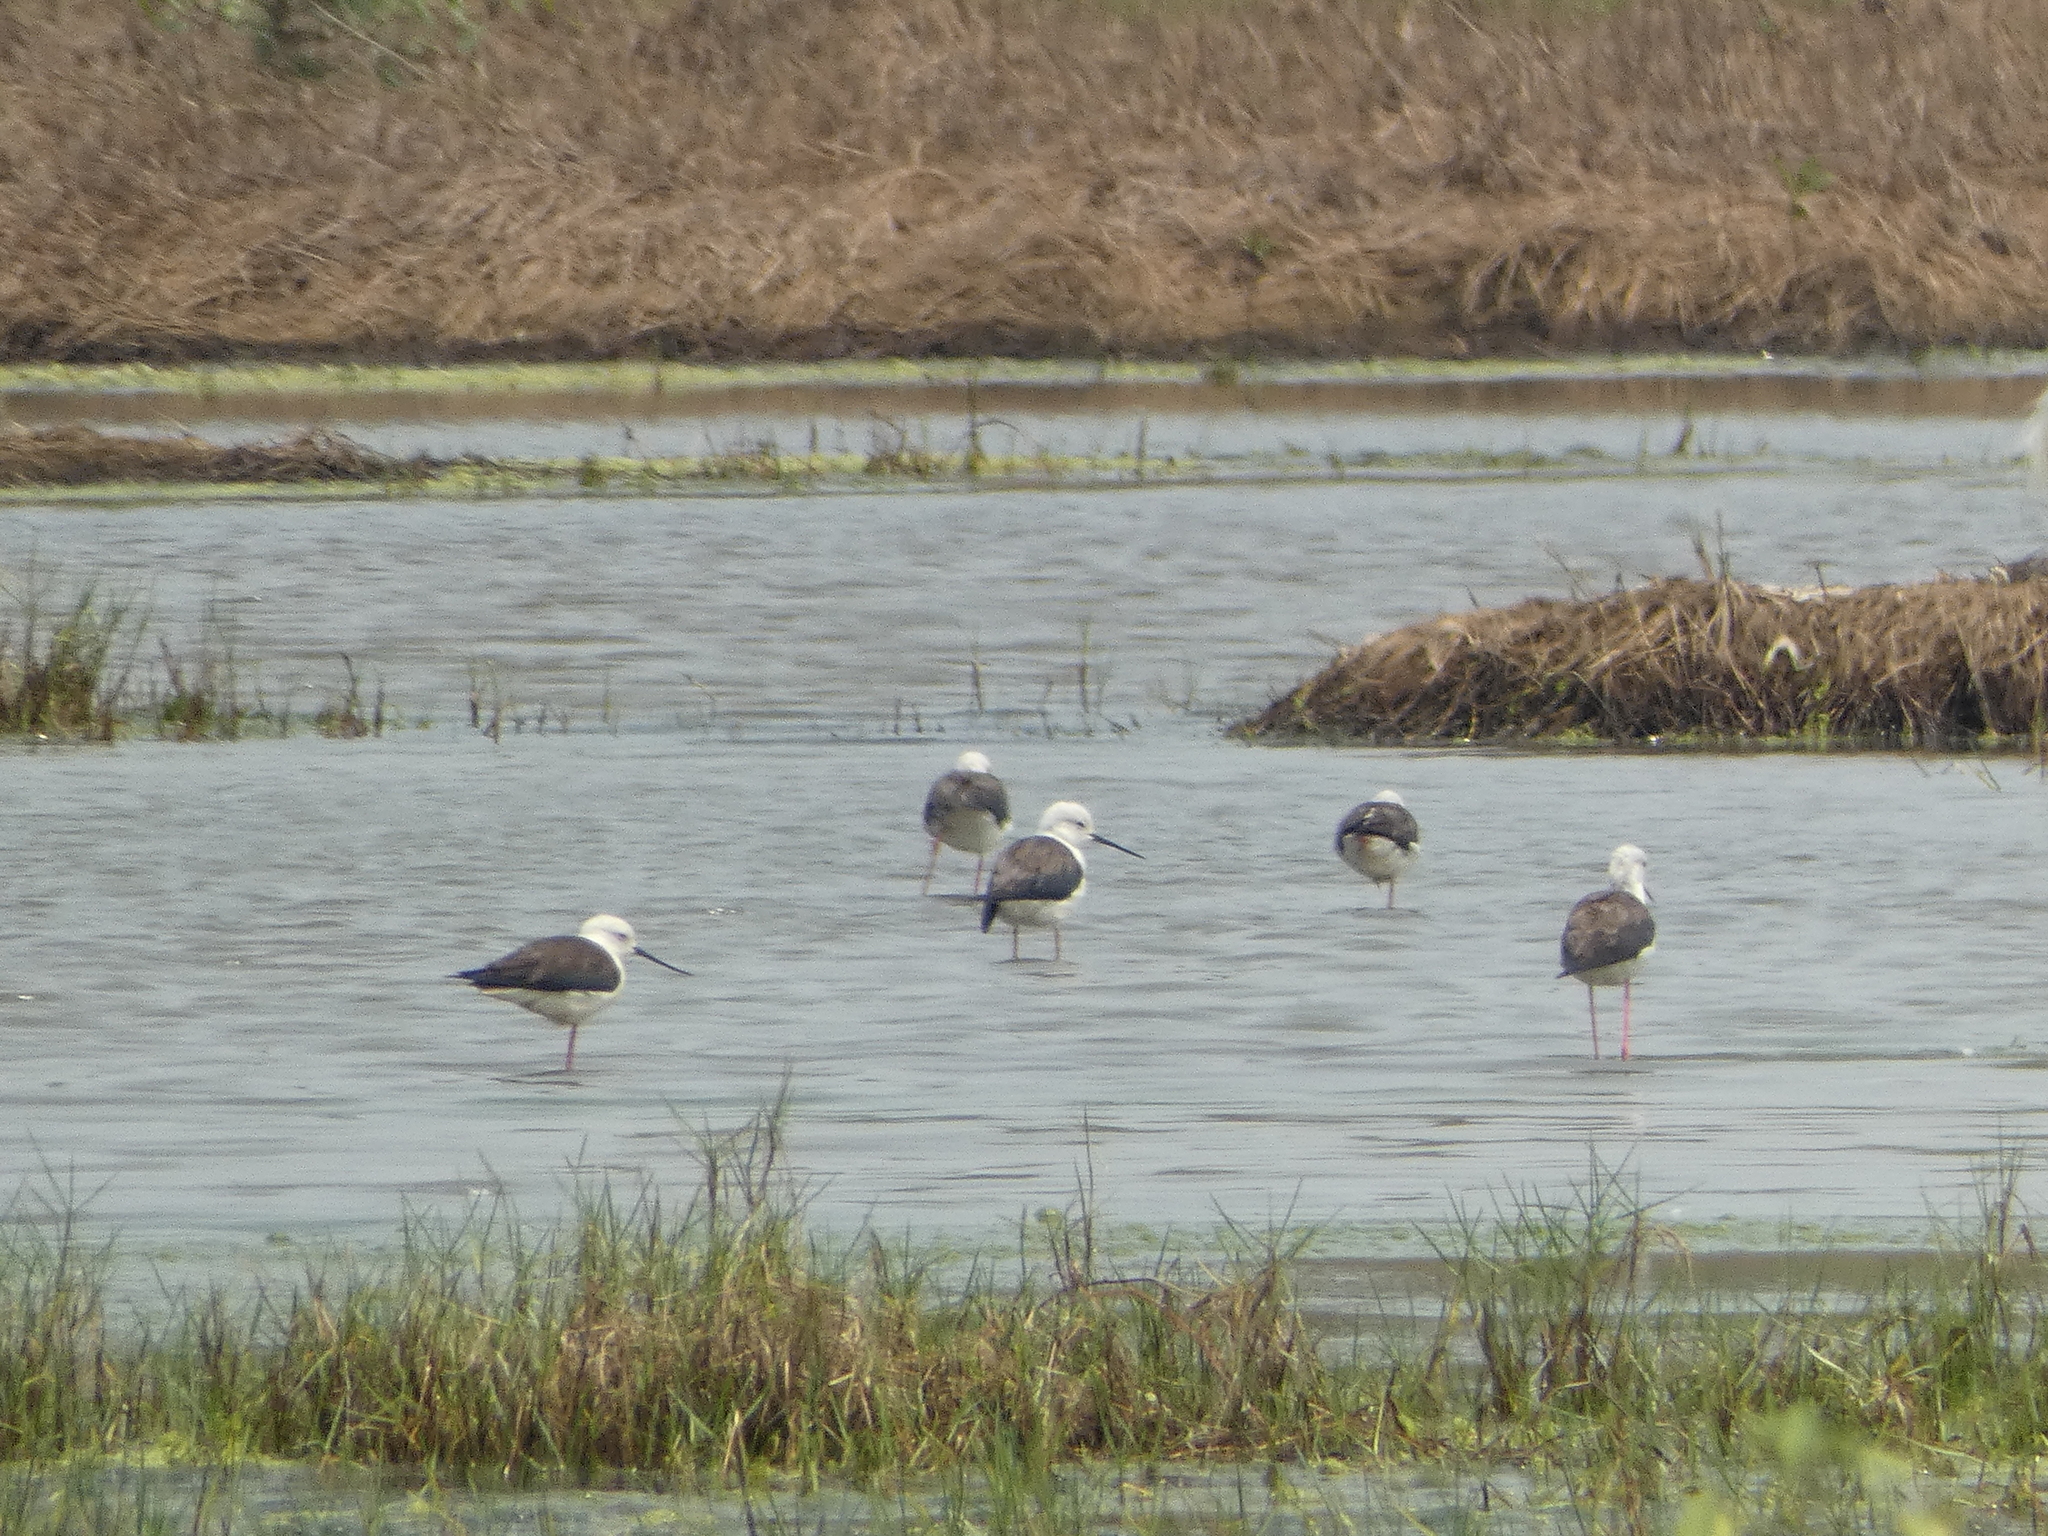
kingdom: Animalia
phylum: Chordata
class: Aves
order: Charadriiformes
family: Recurvirostridae
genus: Himantopus
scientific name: Himantopus himantopus
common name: Black-winged stilt
